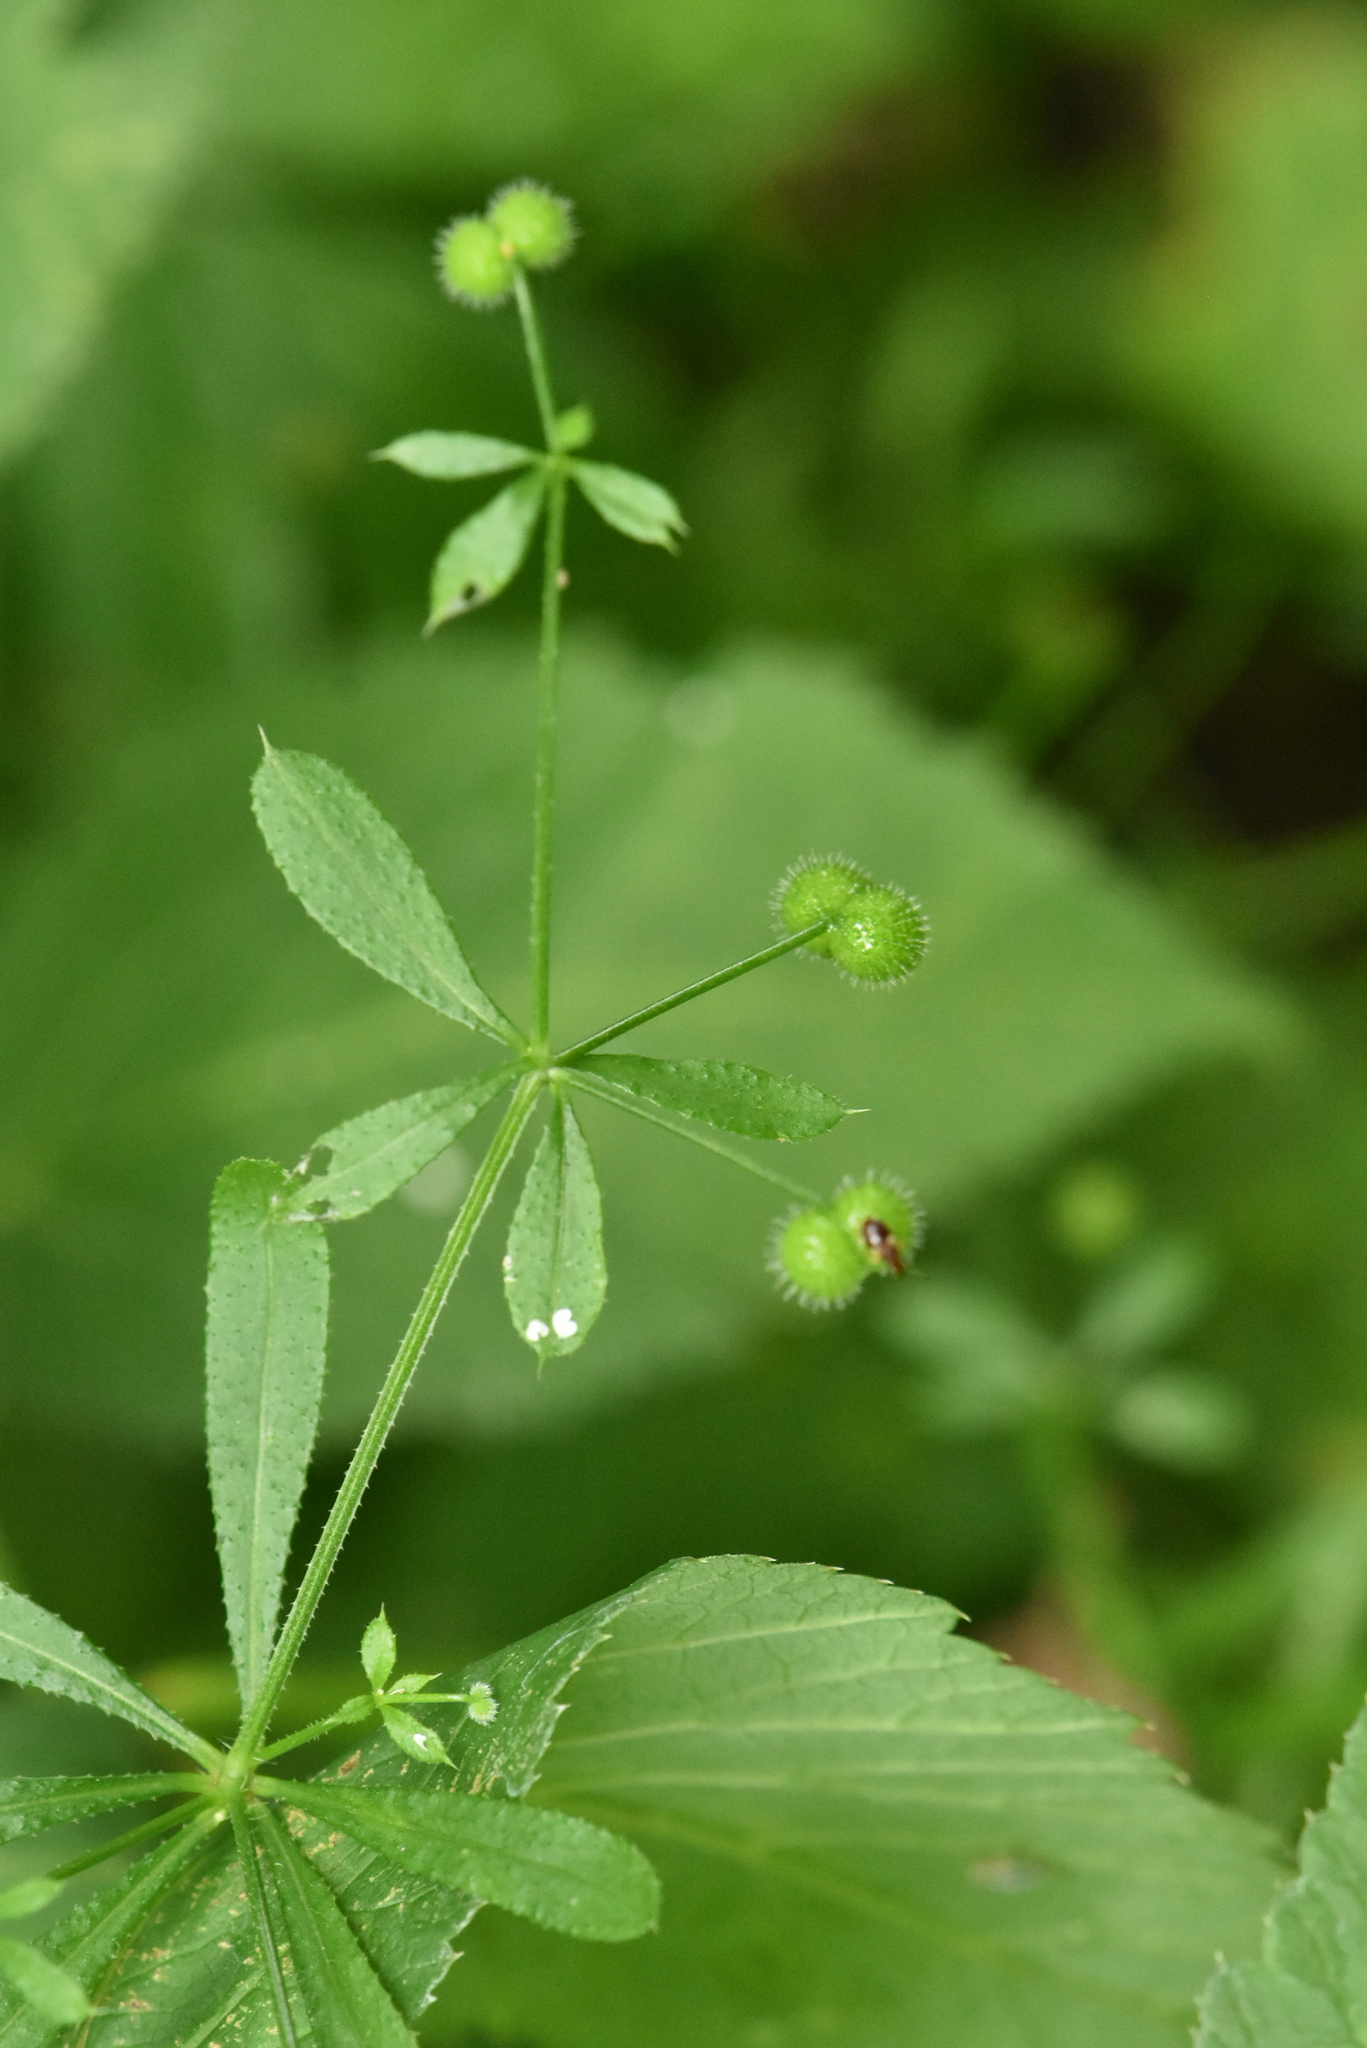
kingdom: Plantae
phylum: Tracheophyta
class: Magnoliopsida
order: Gentianales
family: Rubiaceae
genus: Galium
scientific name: Galium aparine
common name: Cleavers
